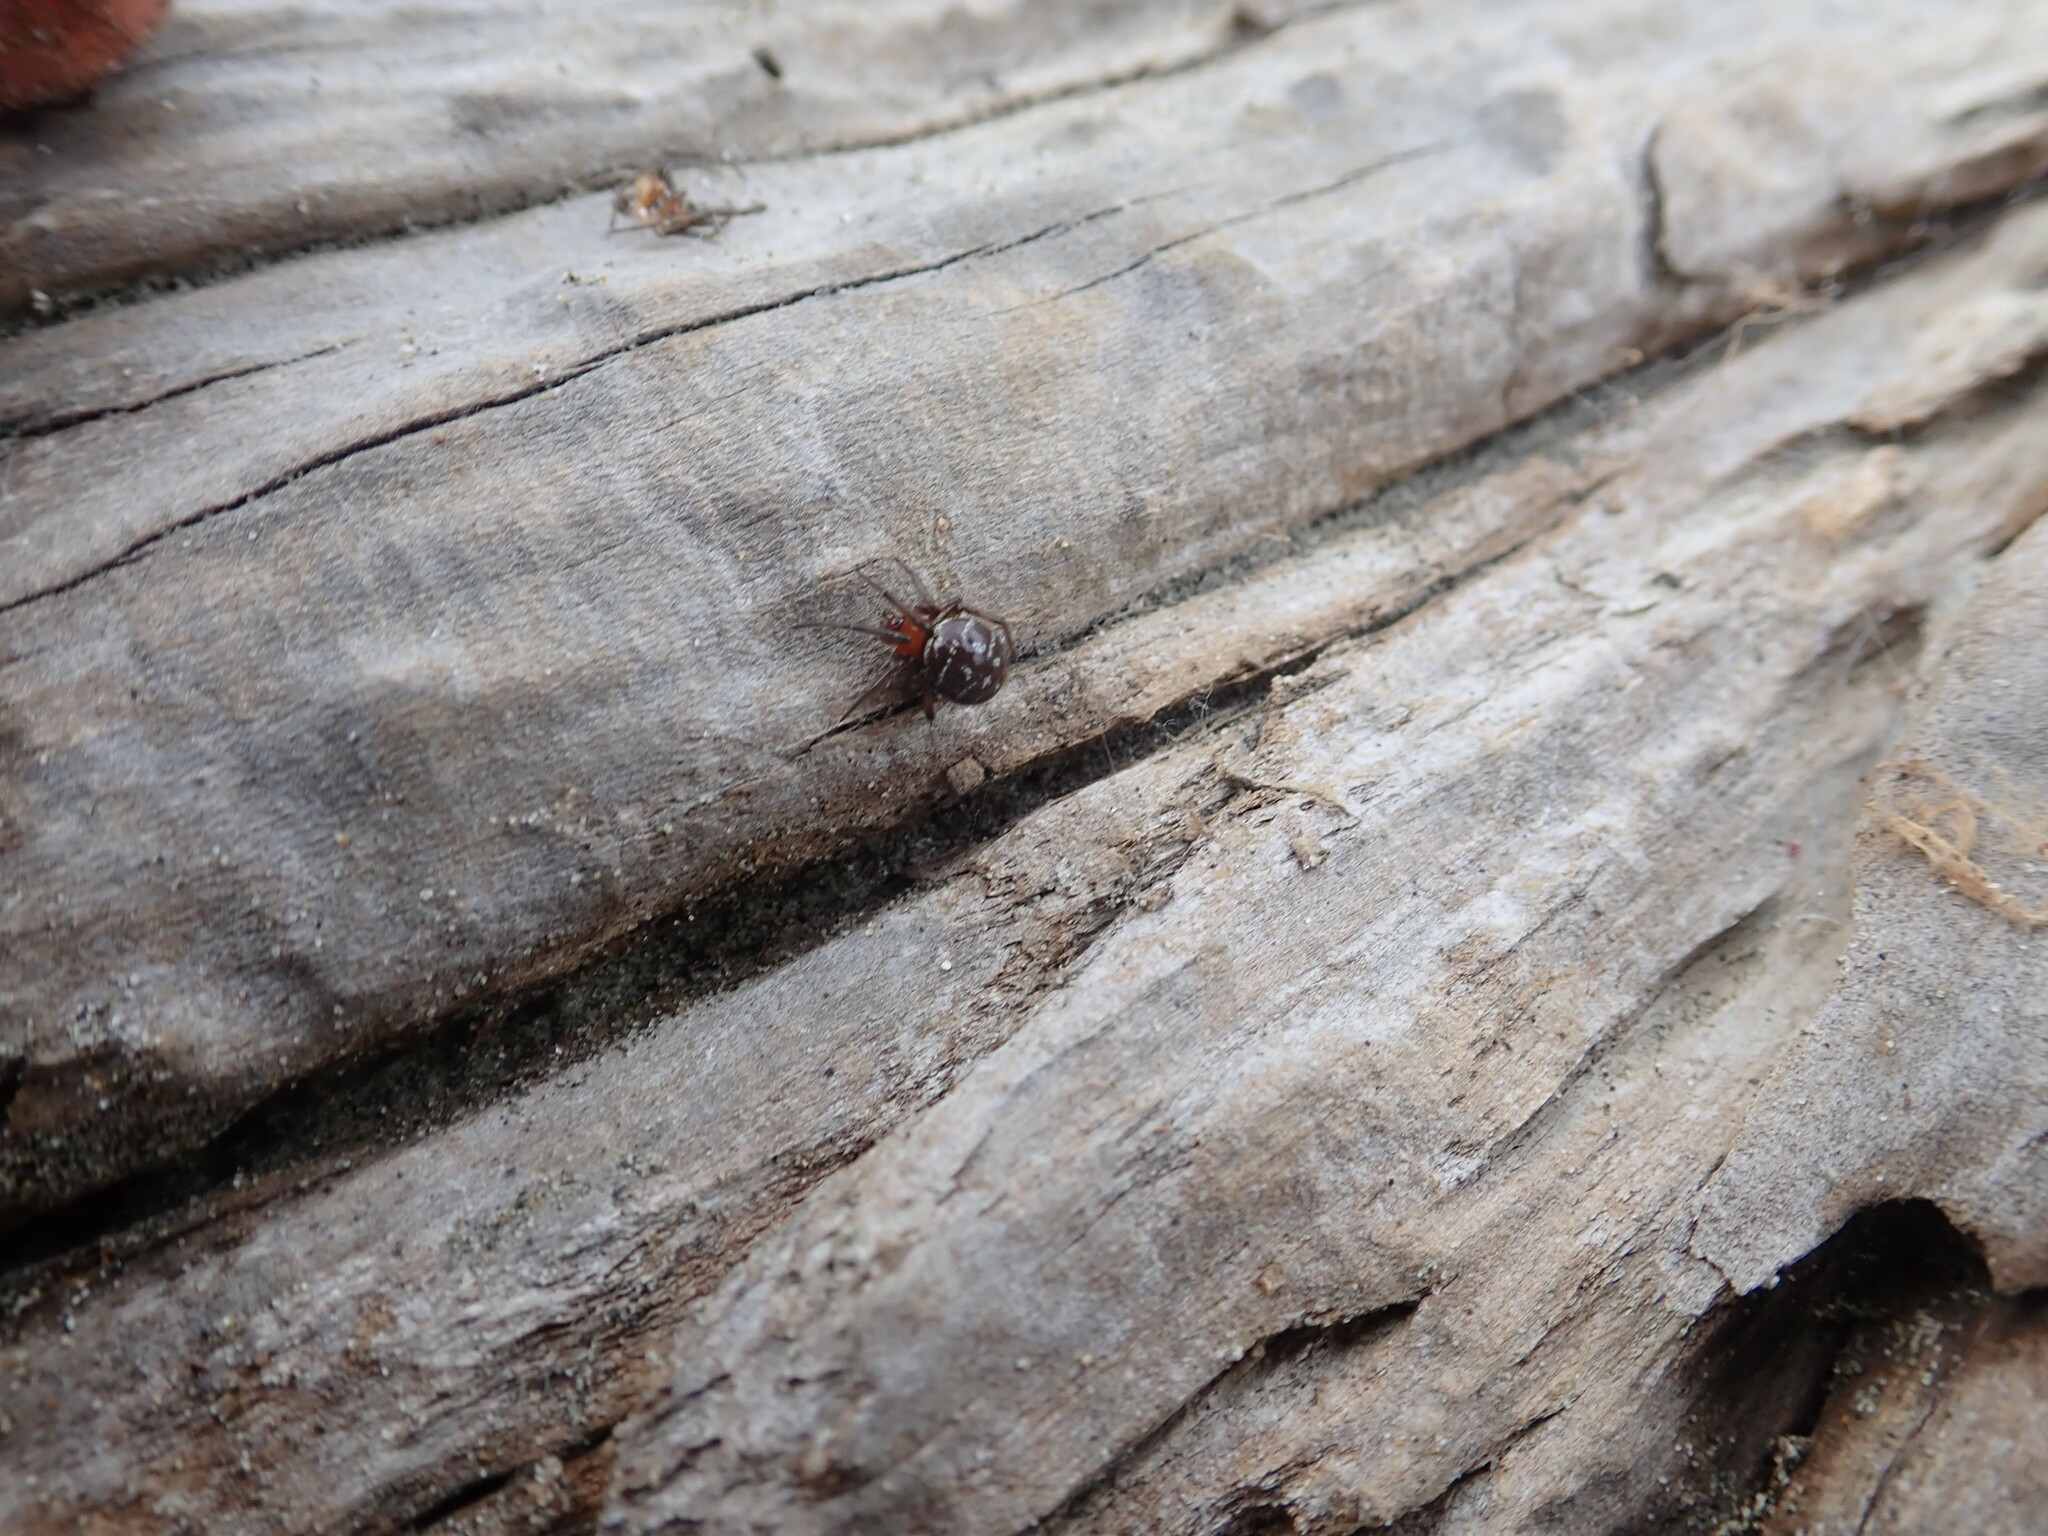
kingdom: Animalia
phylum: Arthropoda
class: Arachnida
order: Araneae
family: Theridiidae
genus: Steatoda
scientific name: Steatoda capensis
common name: Cobweb weaver
